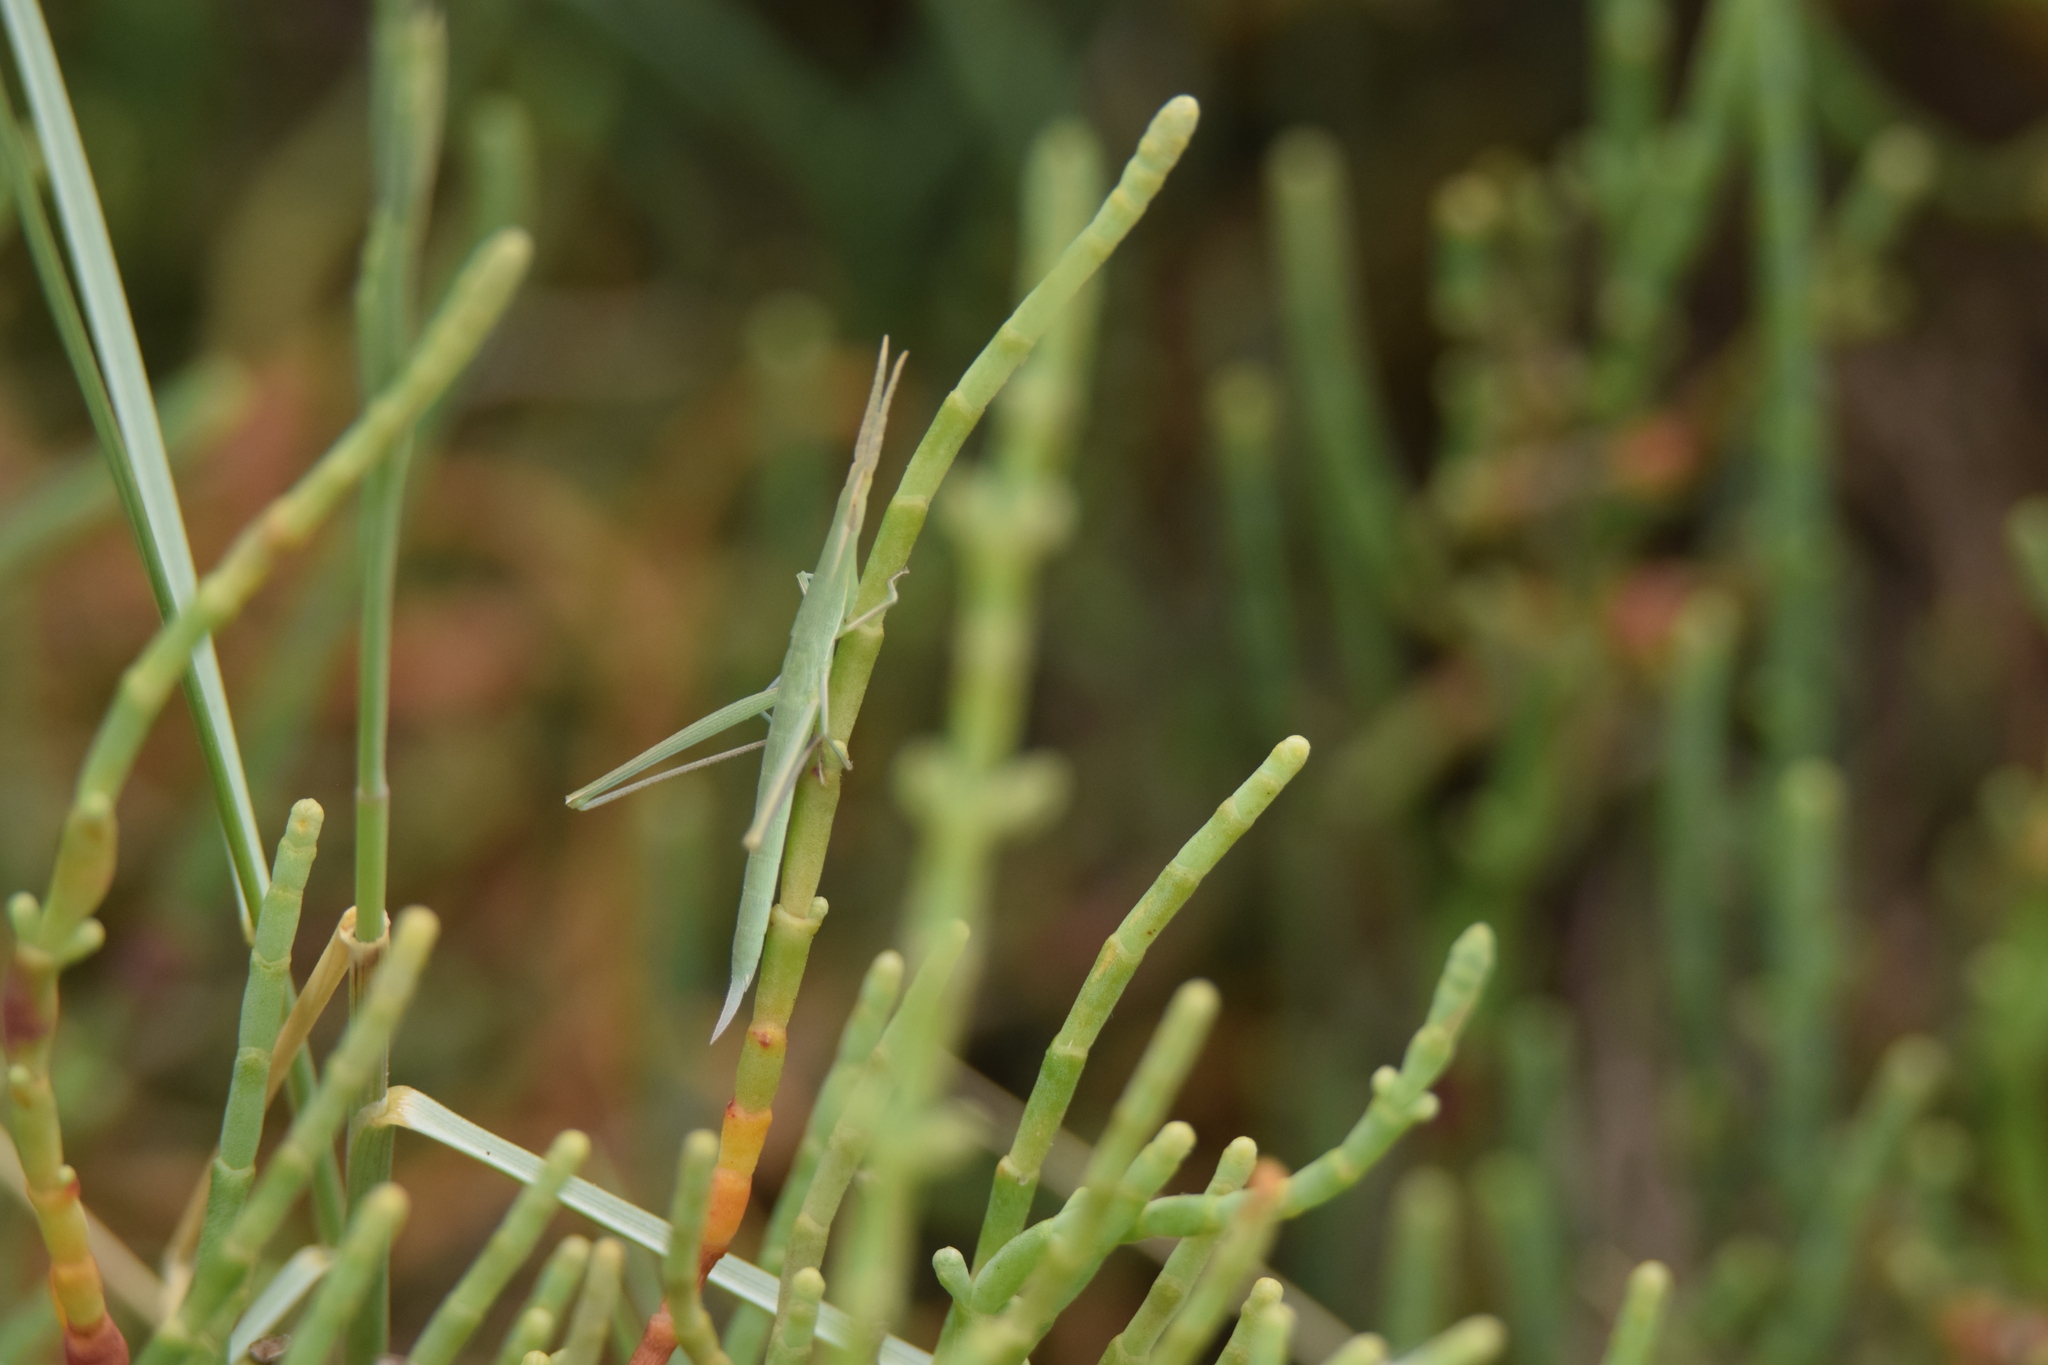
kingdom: Animalia
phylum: Arthropoda
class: Insecta
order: Orthoptera
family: Acrididae
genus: Acrida
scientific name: Acrida ungarica
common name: Common cone-headed grasshopper
